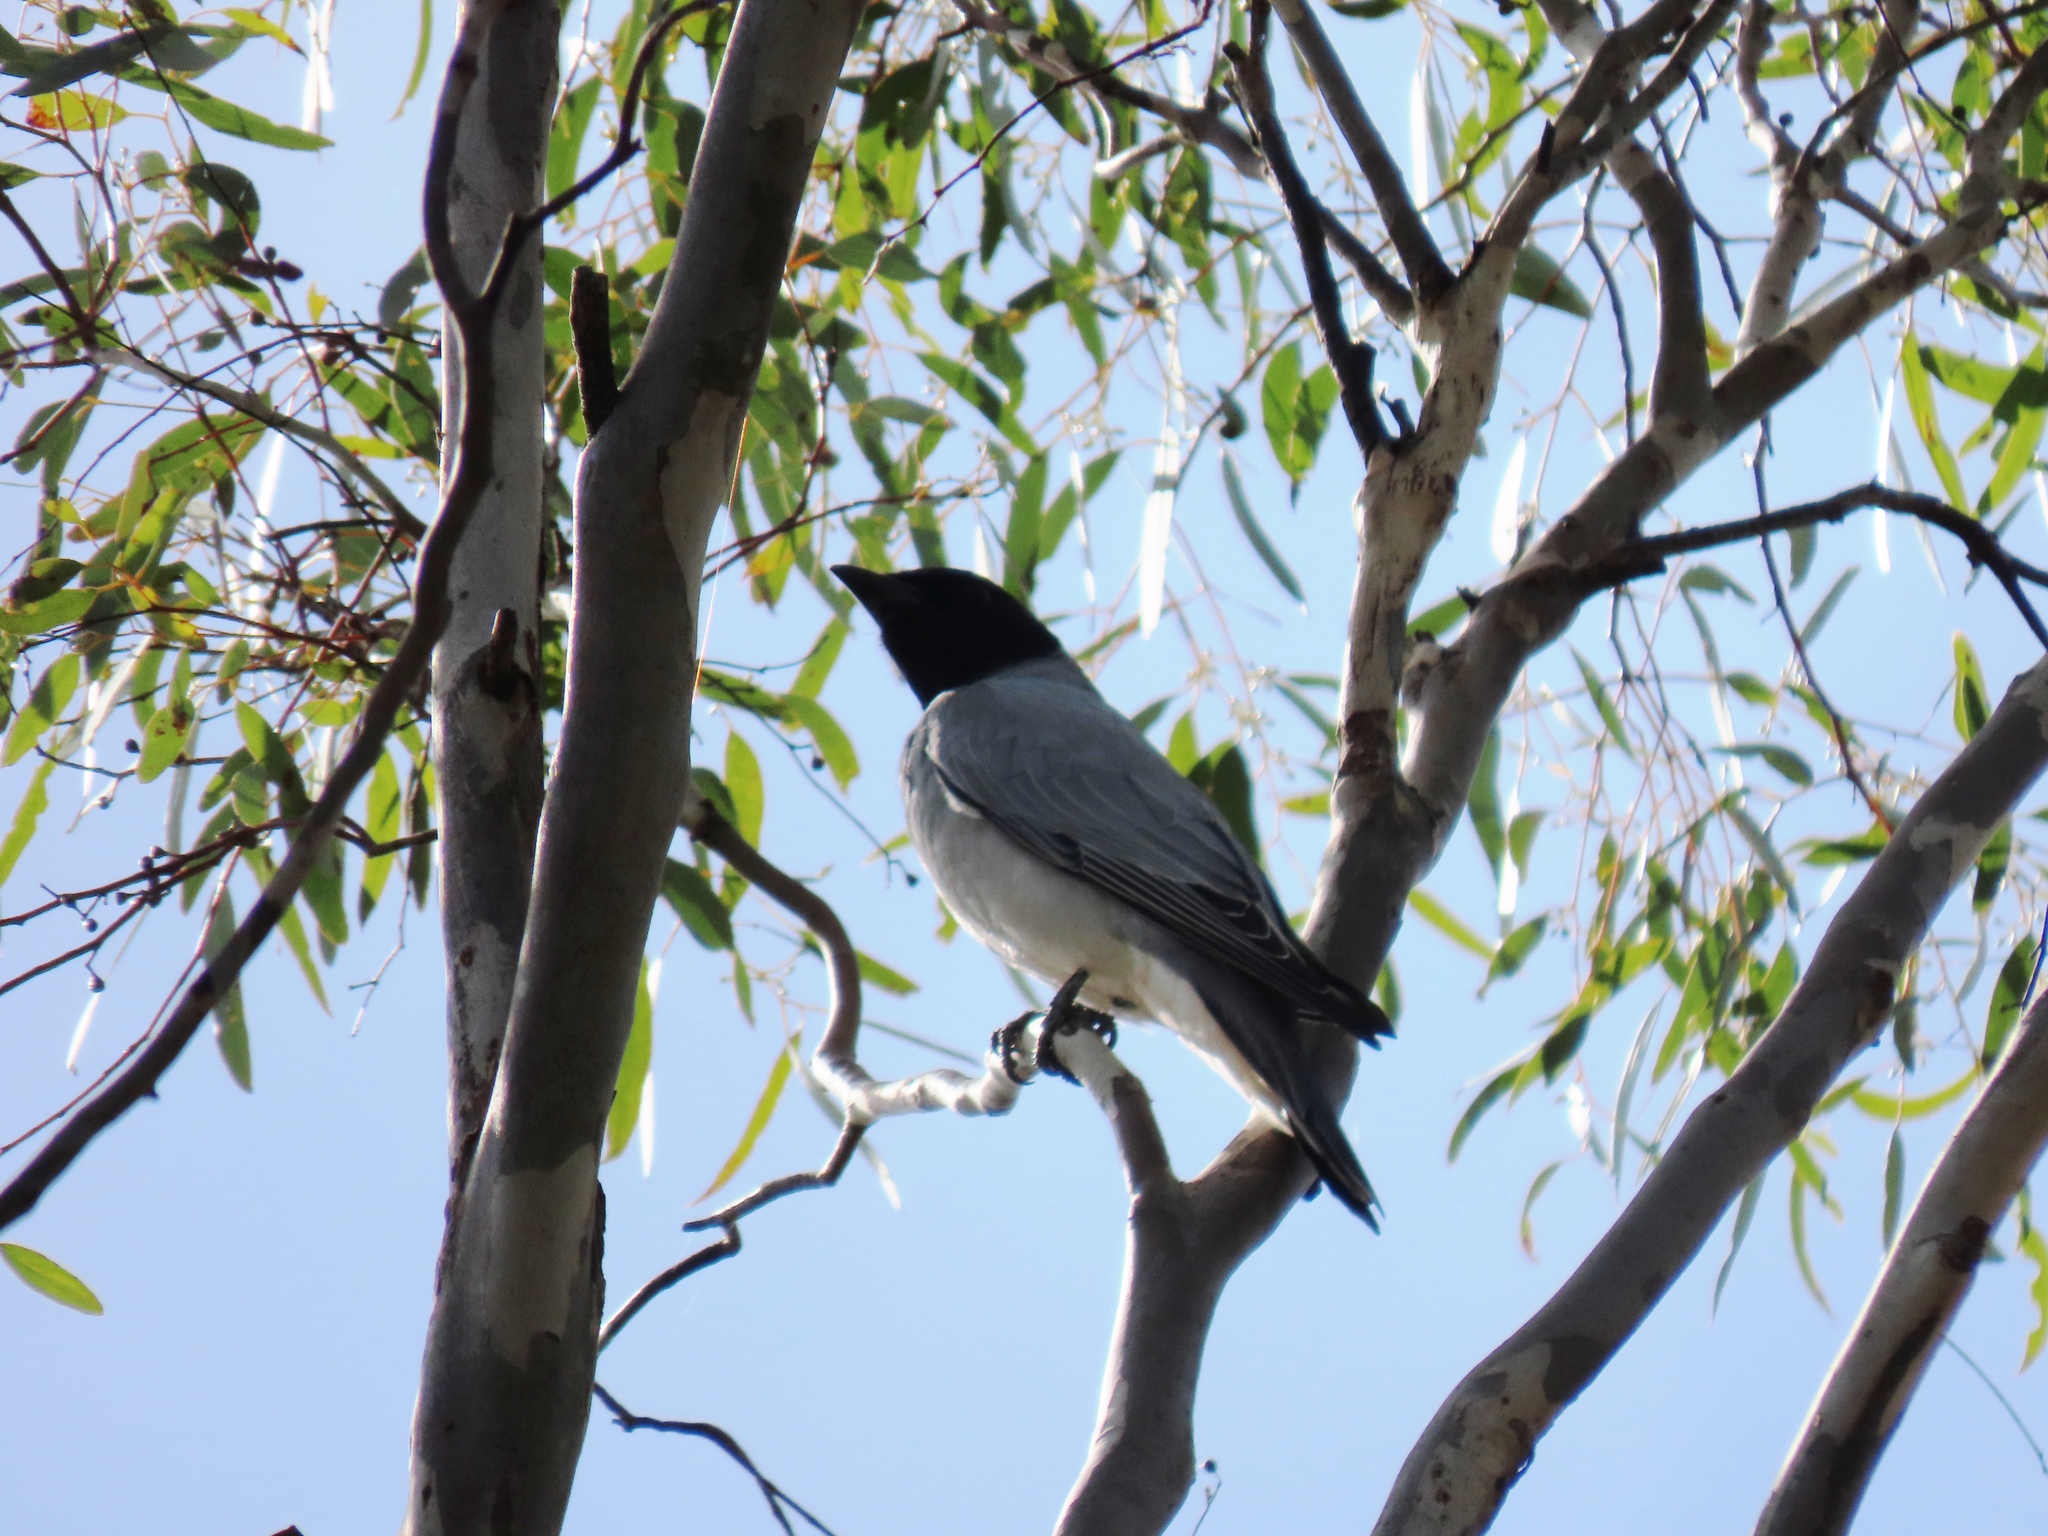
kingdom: Animalia
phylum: Chordata
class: Aves
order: Passeriformes
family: Campephagidae
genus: Coracina
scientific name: Coracina novaehollandiae
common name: Black-faced cuckooshrike
